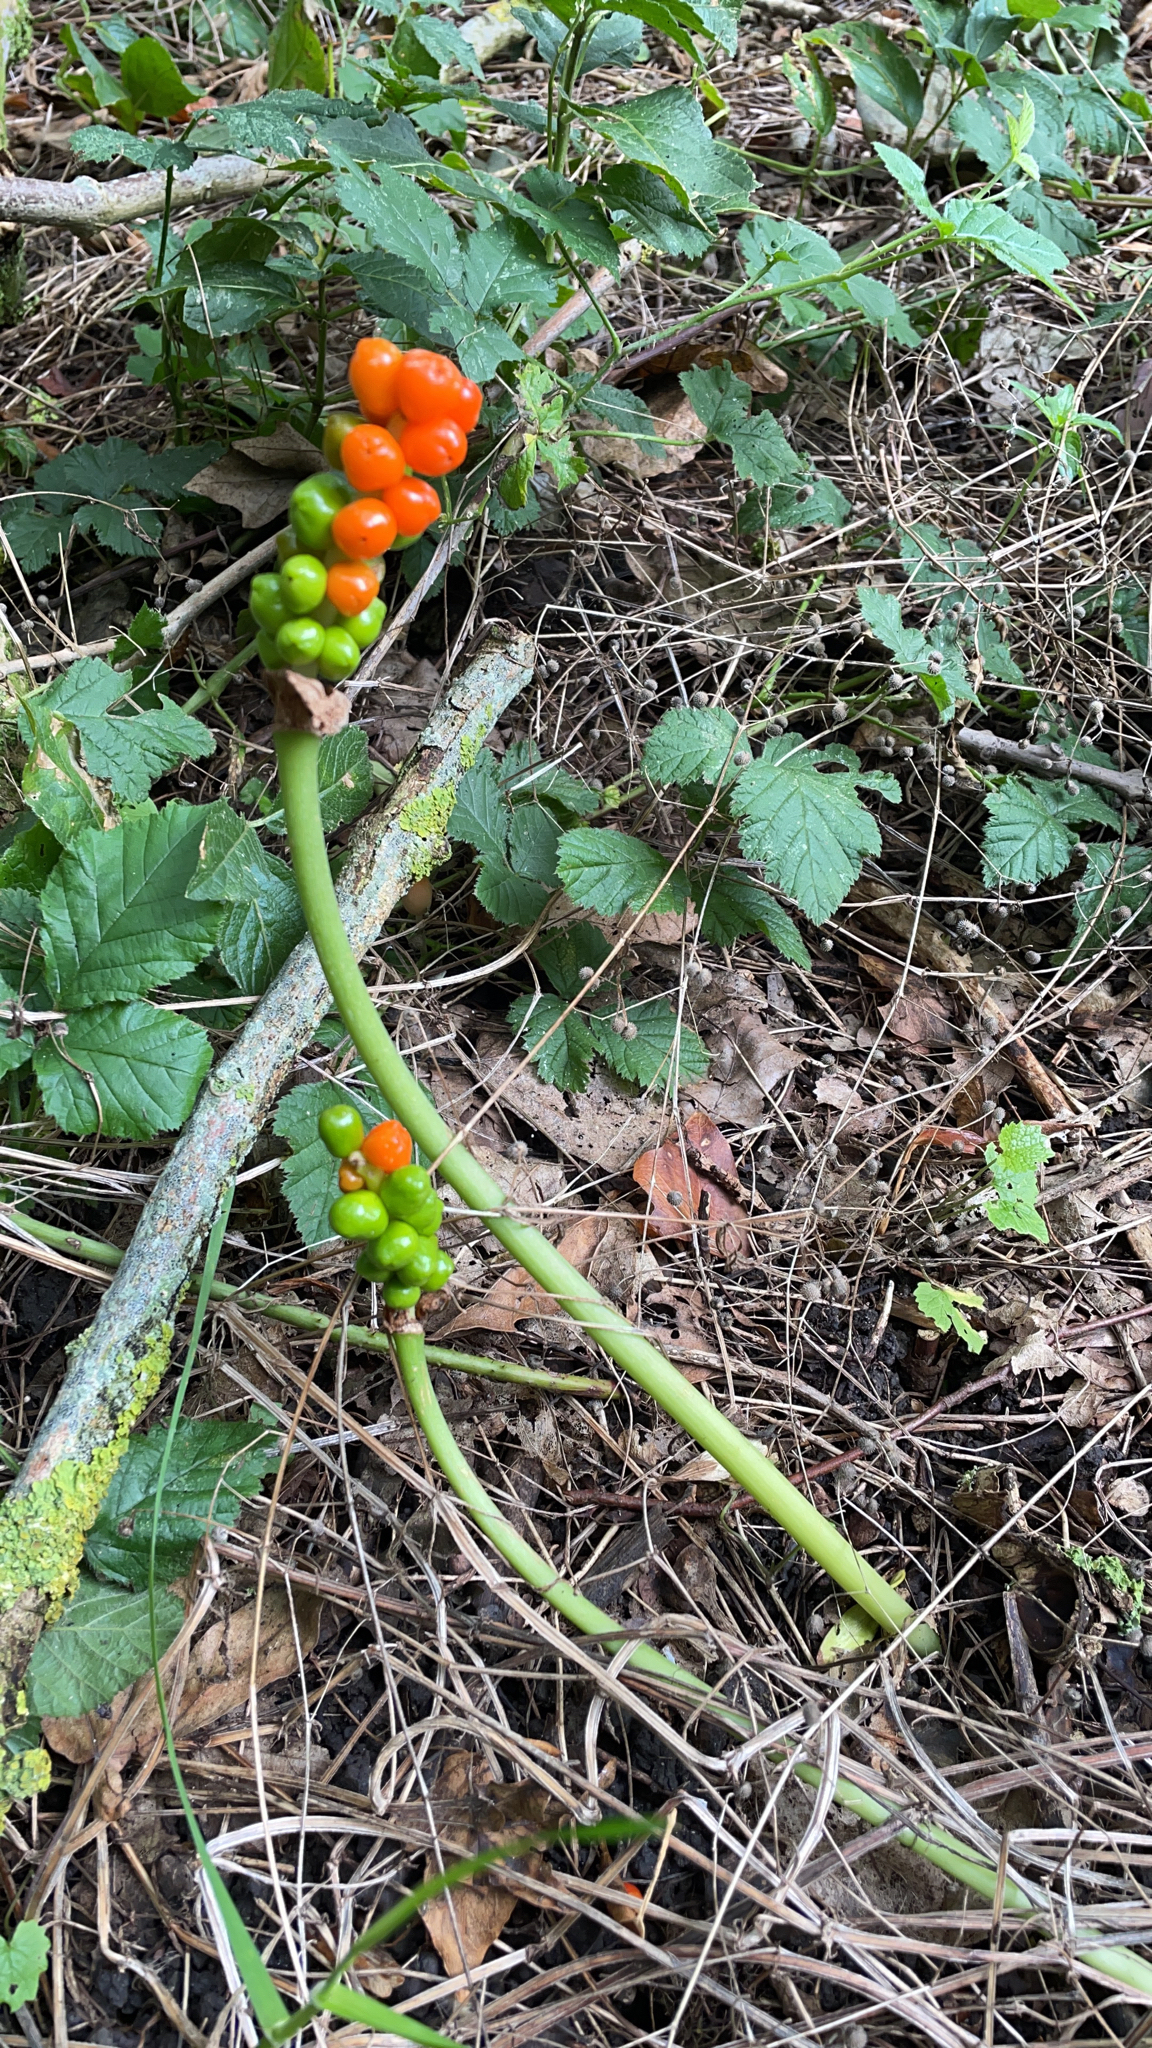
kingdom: Plantae
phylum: Tracheophyta
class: Liliopsida
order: Alismatales
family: Araceae
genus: Arum
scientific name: Arum maculatum
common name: Lords-and-ladies
